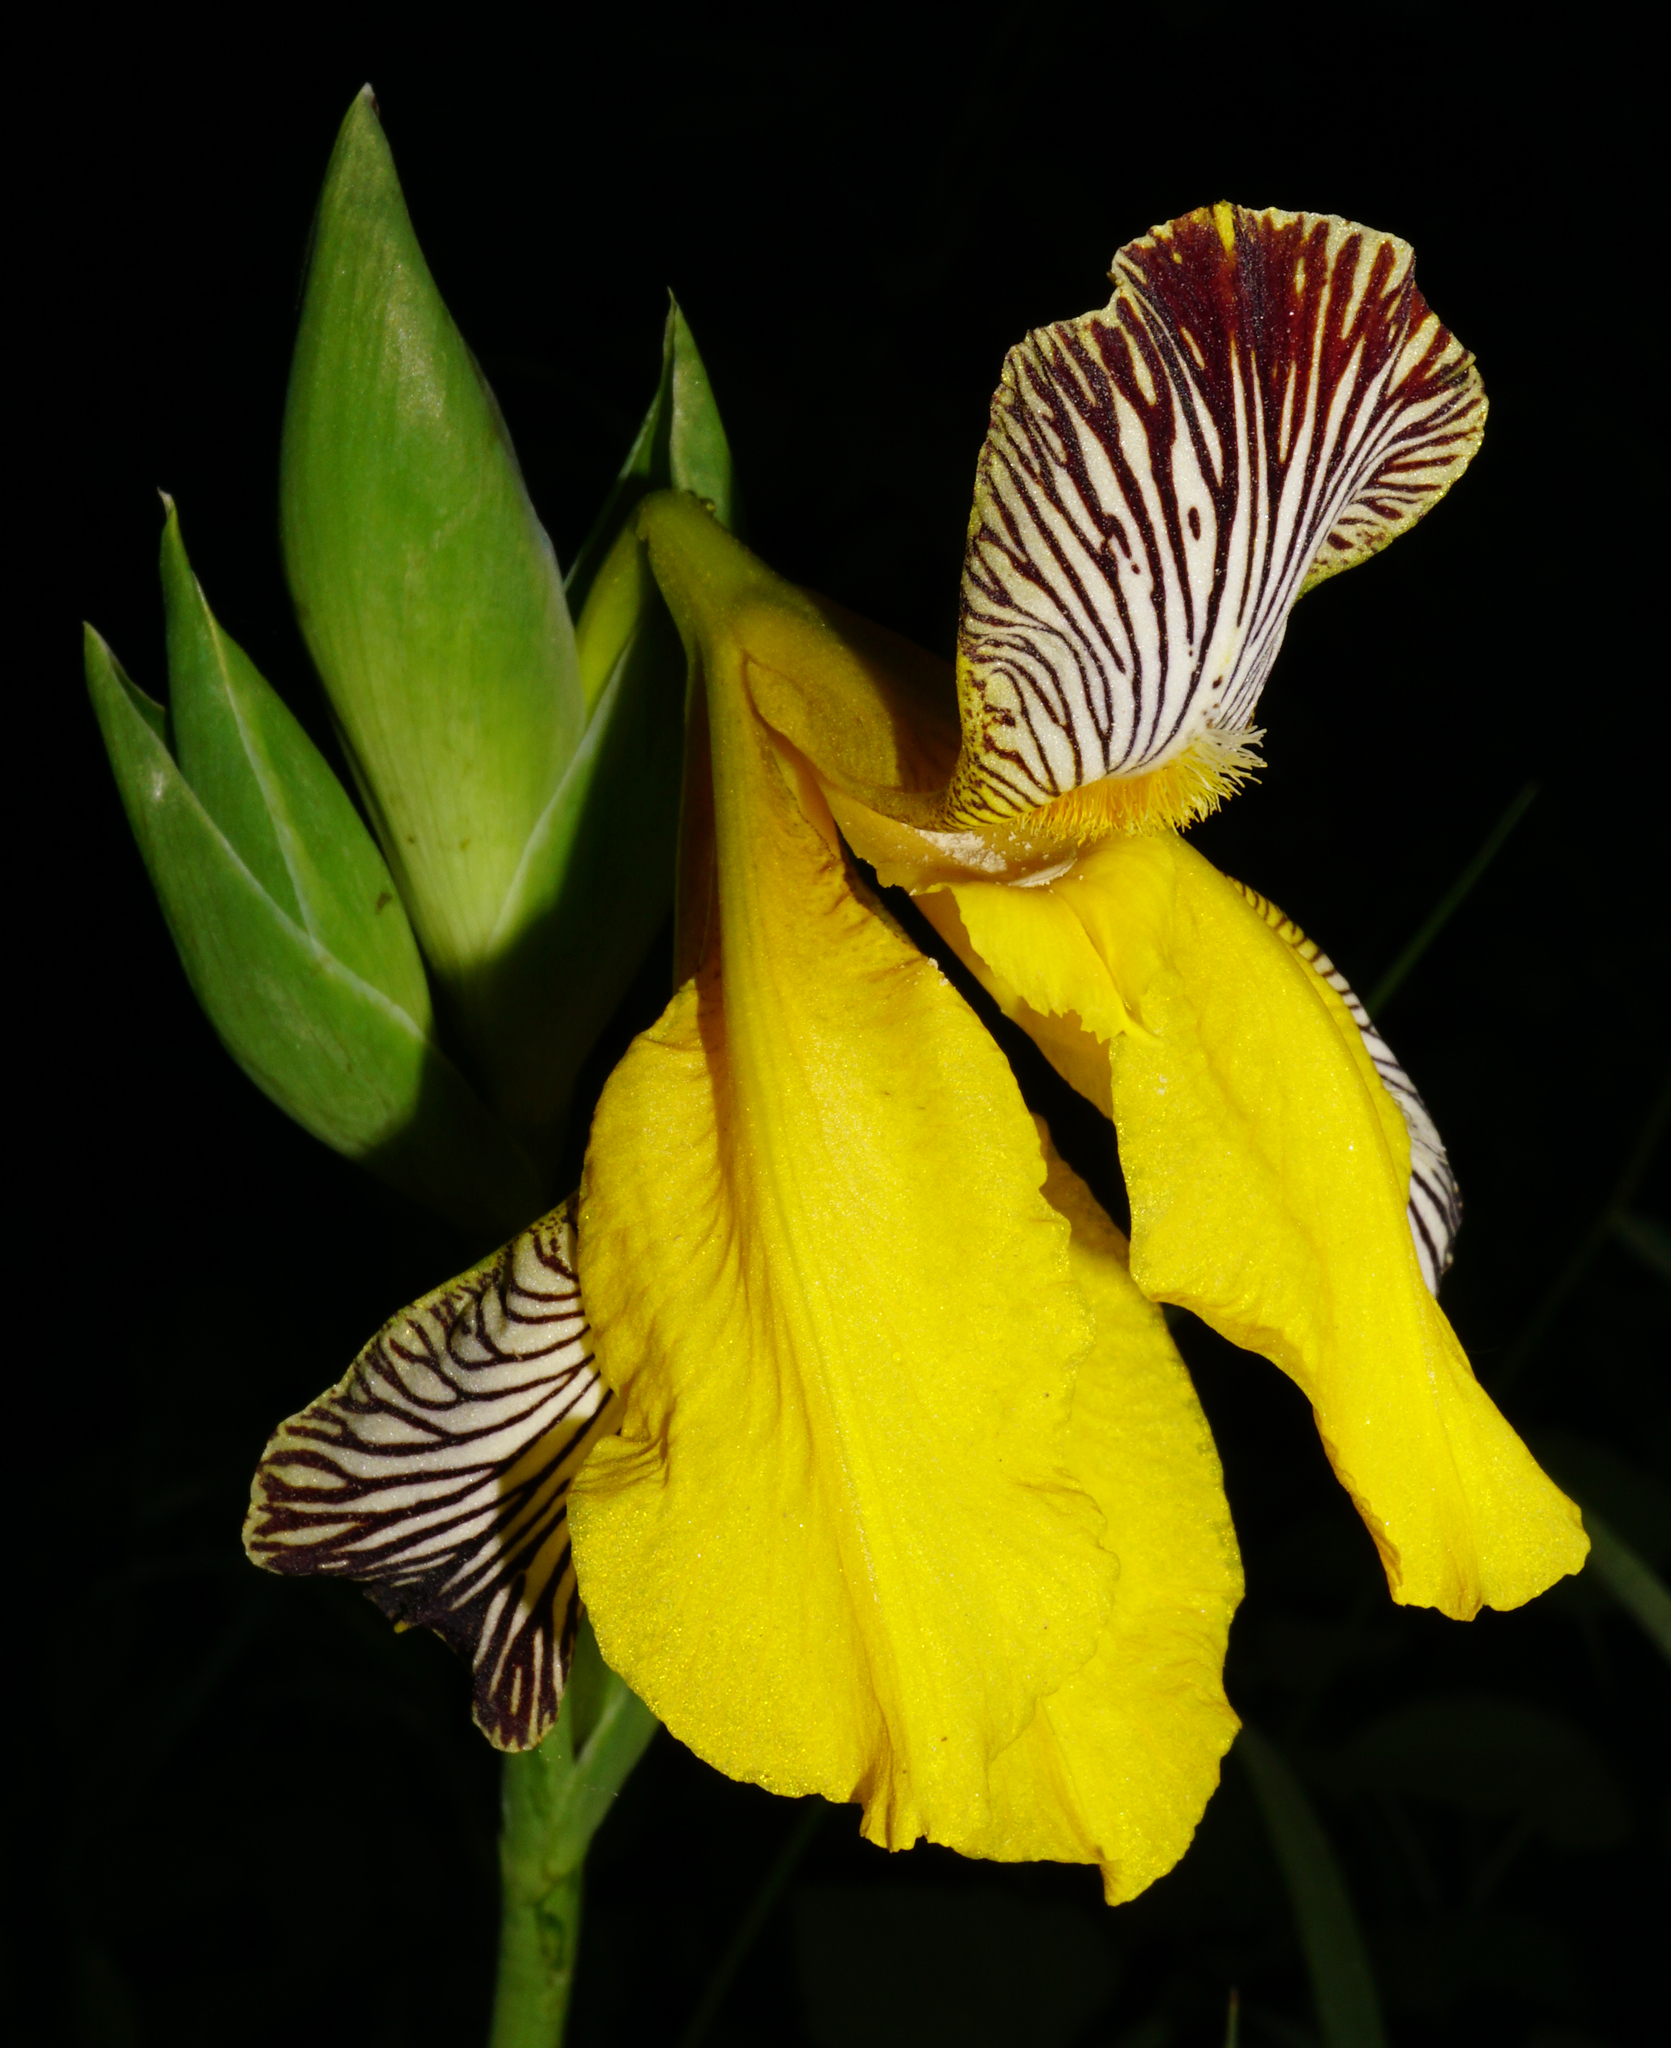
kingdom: Plantae
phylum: Tracheophyta
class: Liliopsida
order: Asparagales
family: Iridaceae
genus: Iris
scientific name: Iris variegata
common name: Hungarian iris
